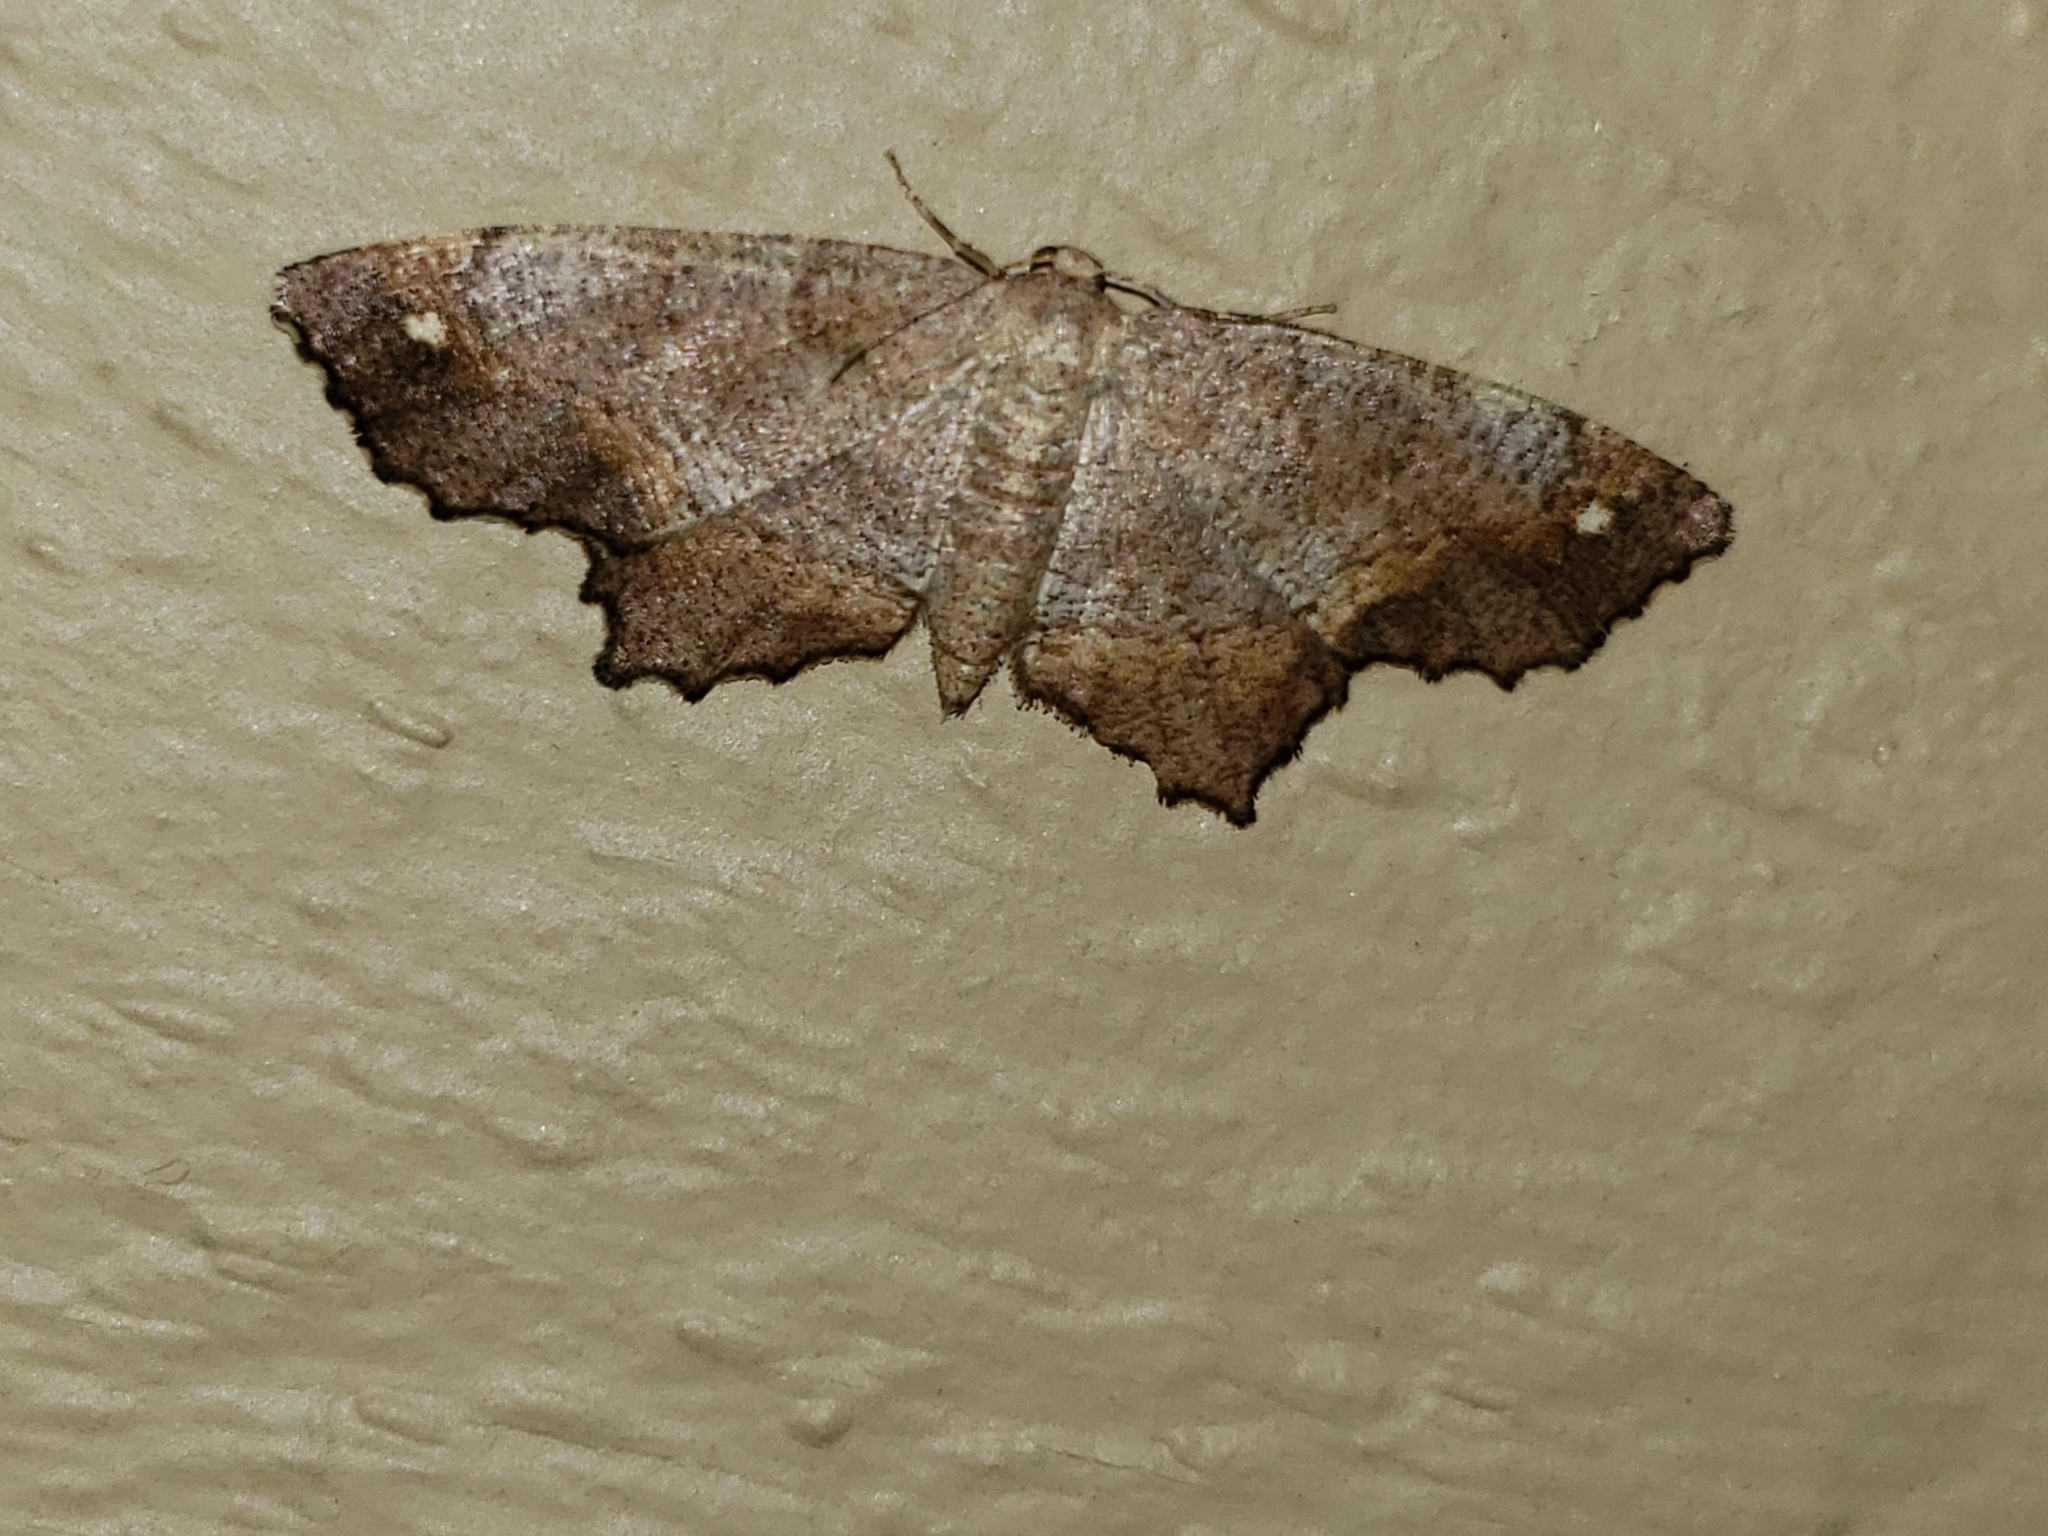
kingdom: Animalia
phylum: Arthropoda
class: Insecta
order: Lepidoptera
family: Geometridae
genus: Hypagyrtis
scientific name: Hypagyrtis unipunctata
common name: One-spotted variant
